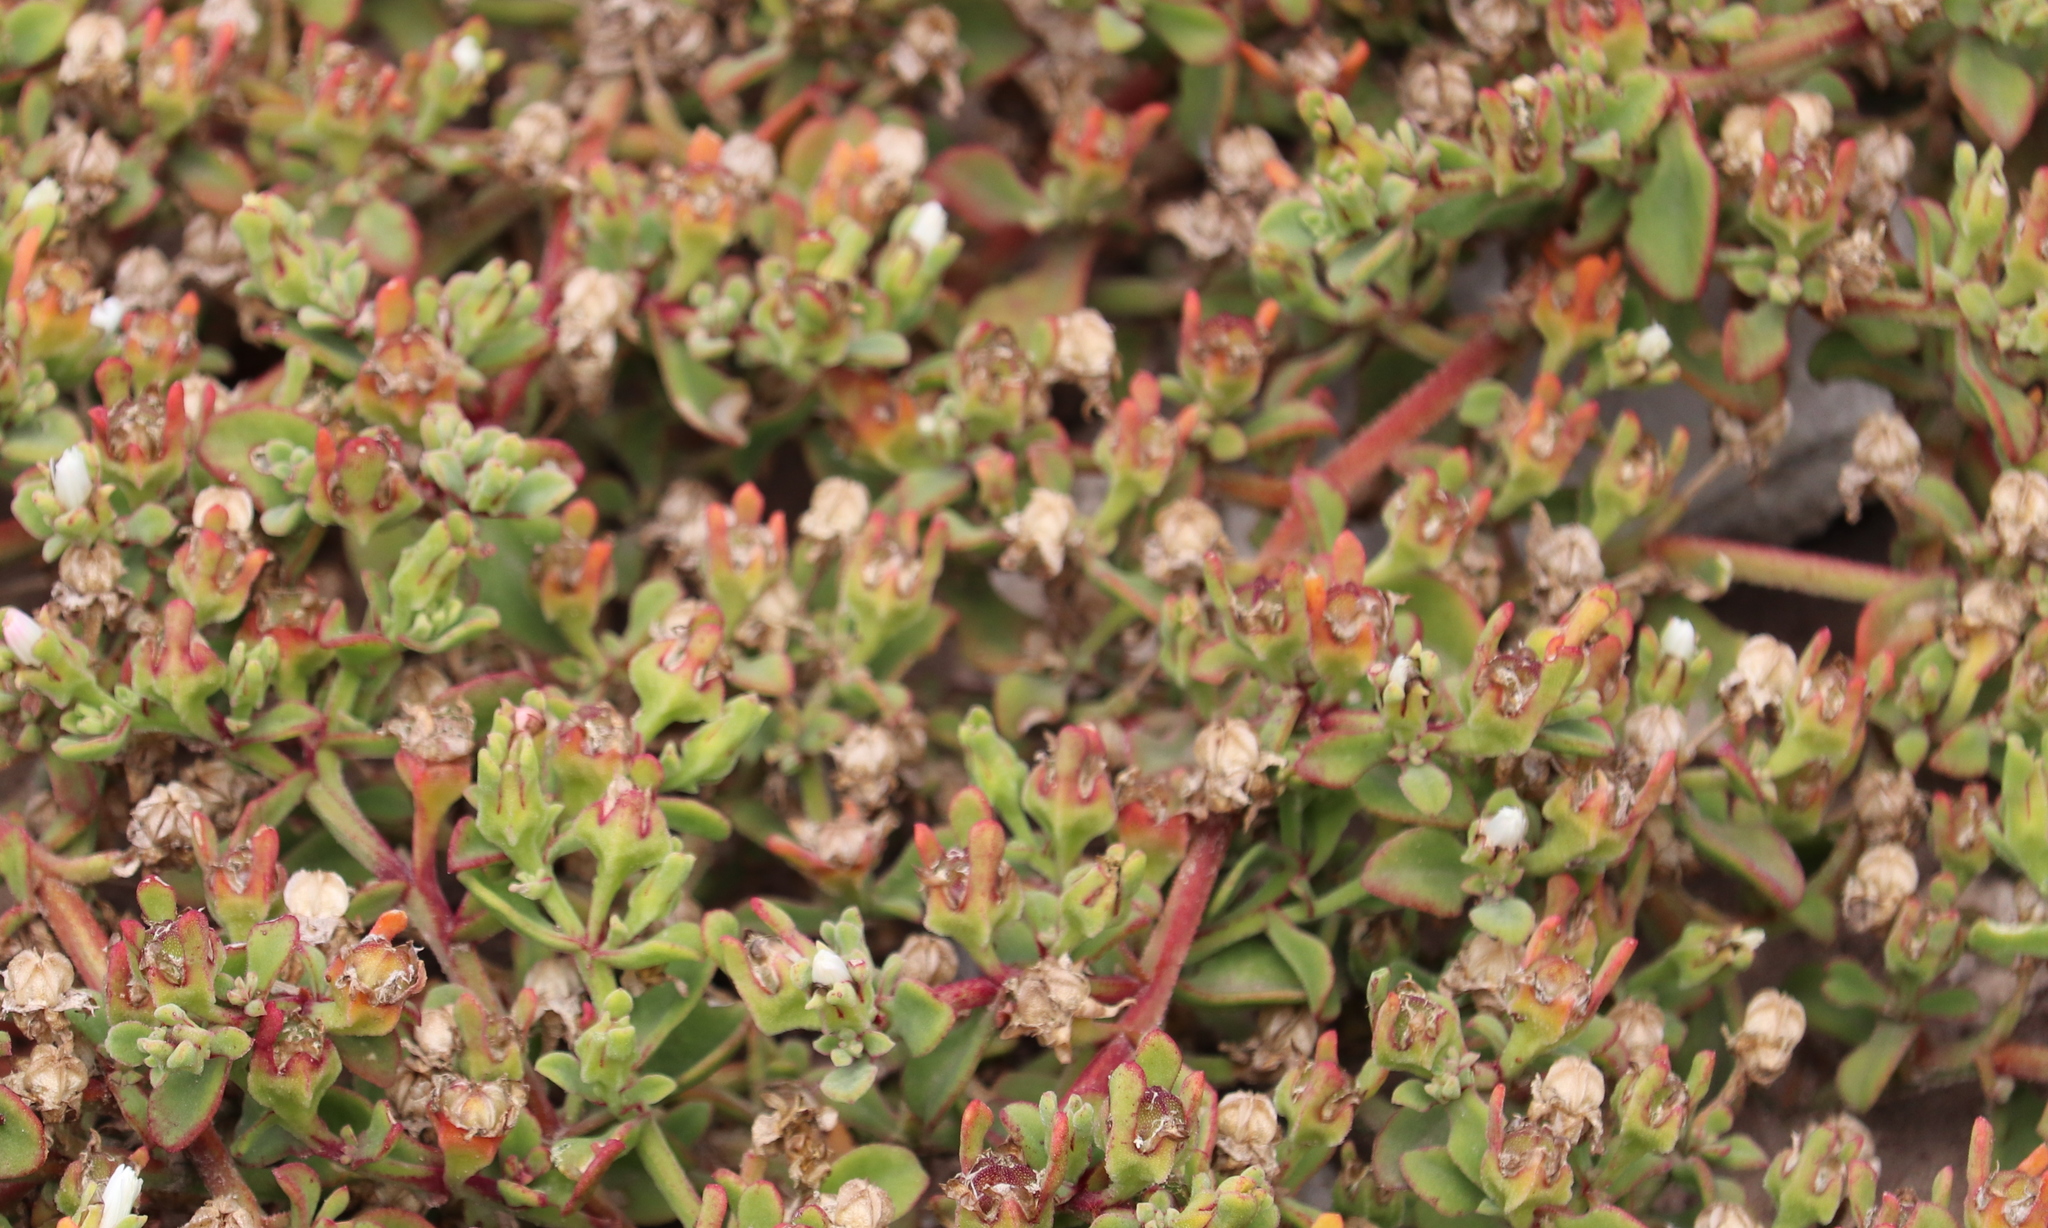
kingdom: Plantae
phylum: Tracheophyta
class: Magnoliopsida
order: Caryophyllales
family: Aizoaceae
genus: Mesembryanthemum
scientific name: Mesembryanthemum aitonis
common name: Angled iceplant
